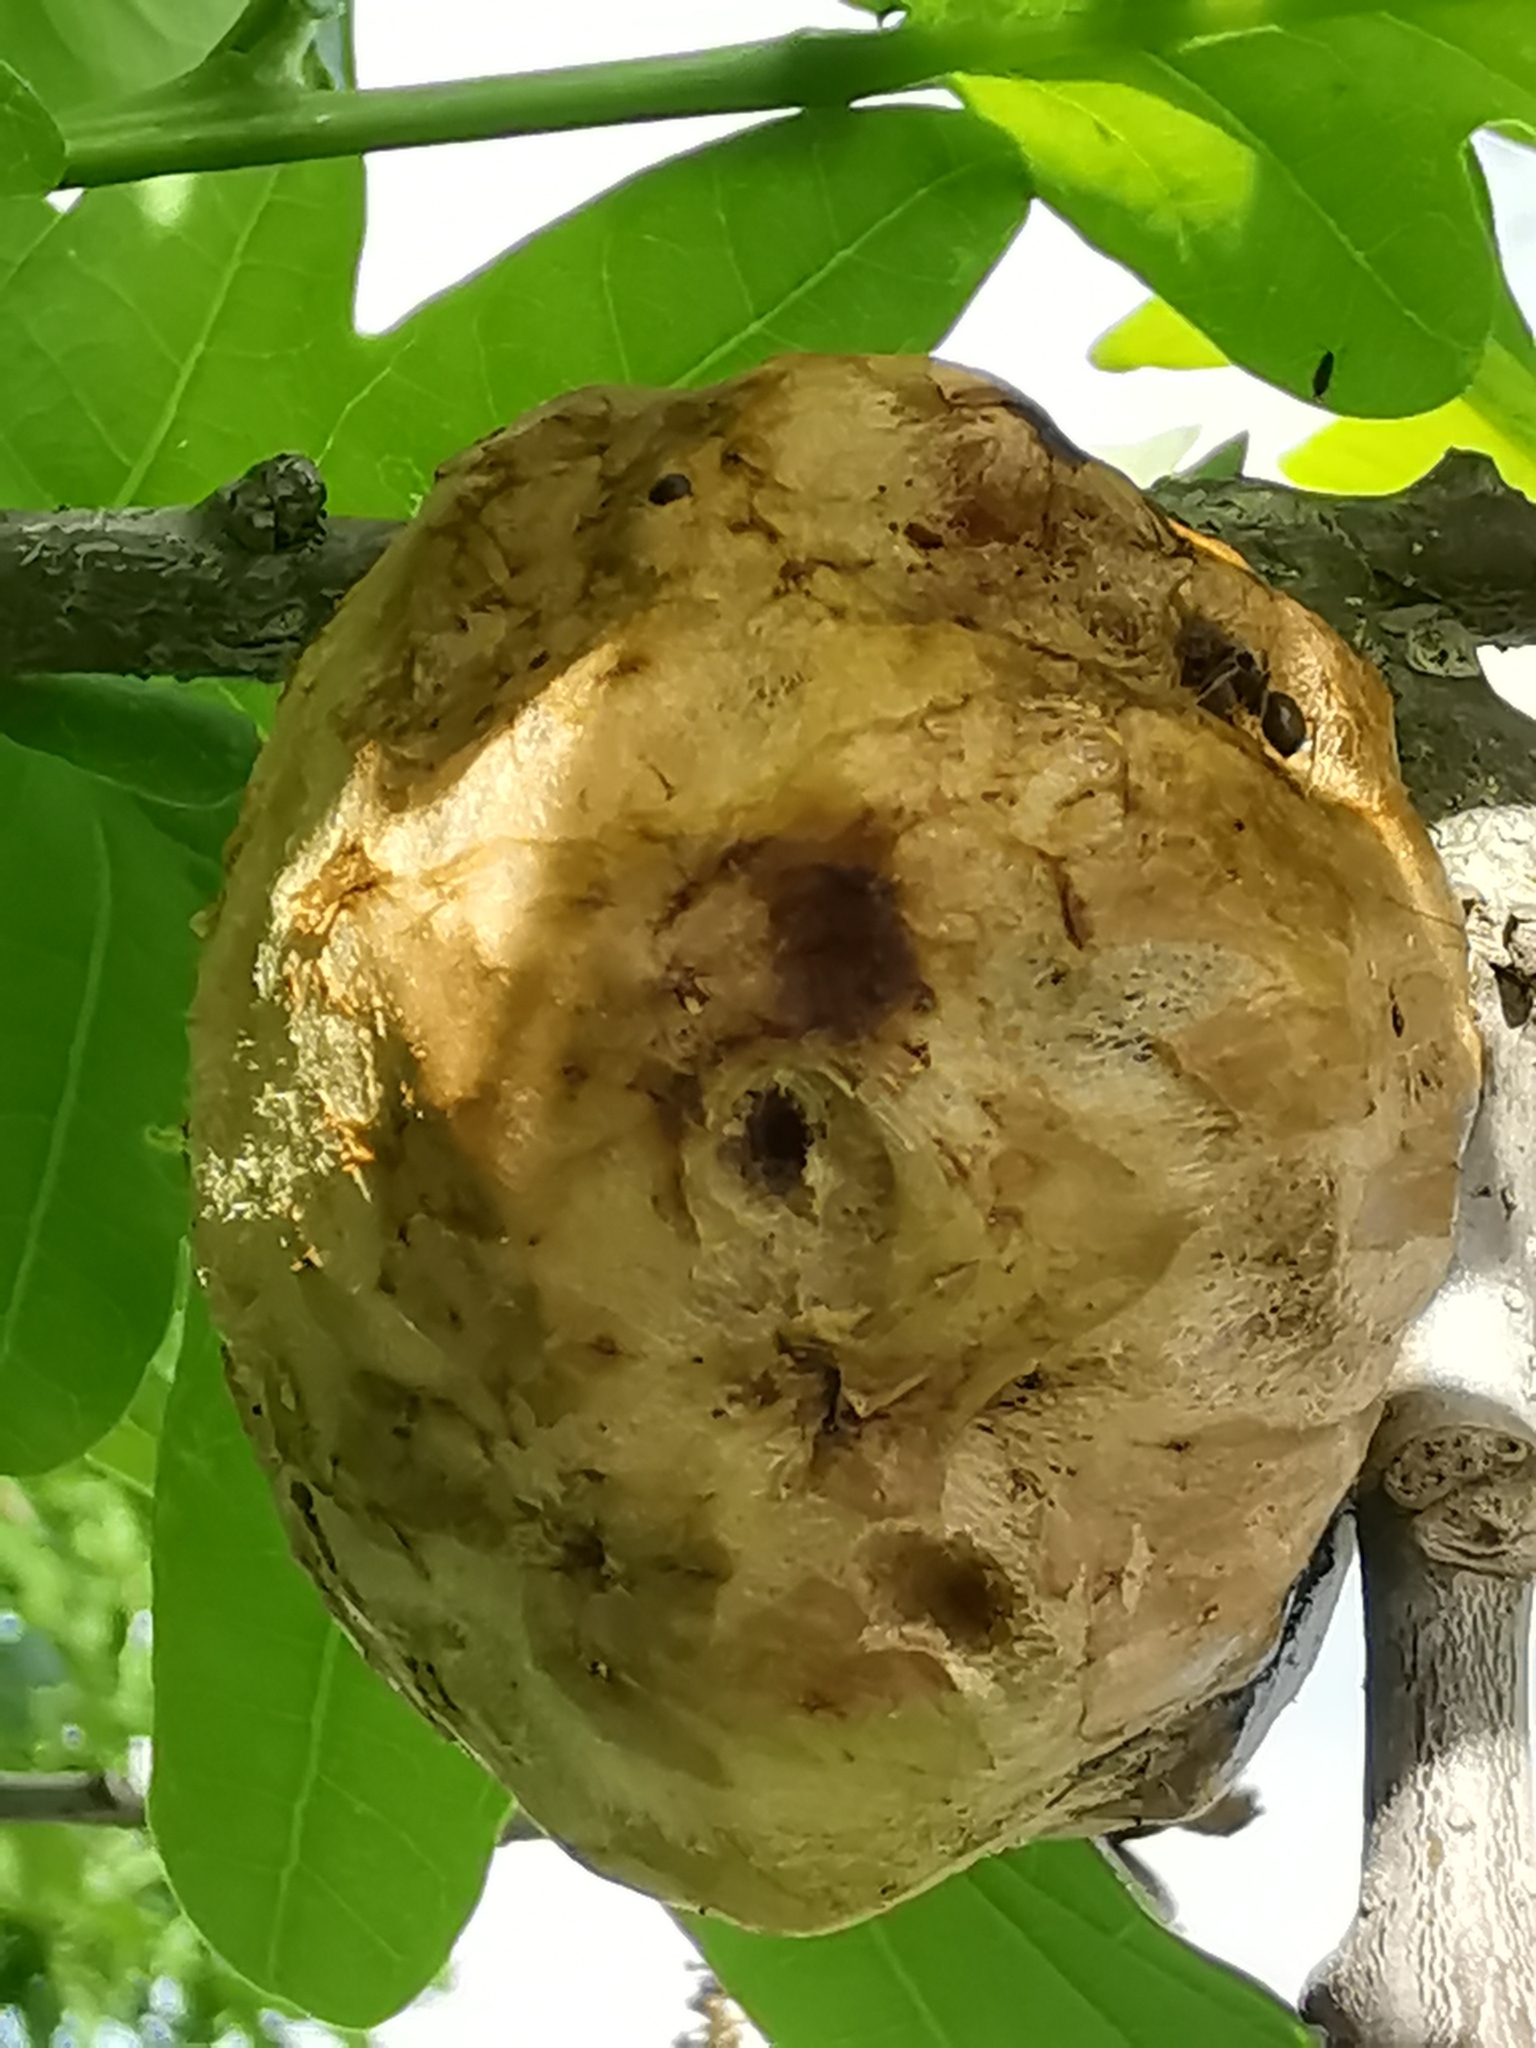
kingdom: Animalia
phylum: Arthropoda
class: Insecta
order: Hymenoptera
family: Cynipidae
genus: Biorhiza
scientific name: Biorhiza pallida
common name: Oak apple
